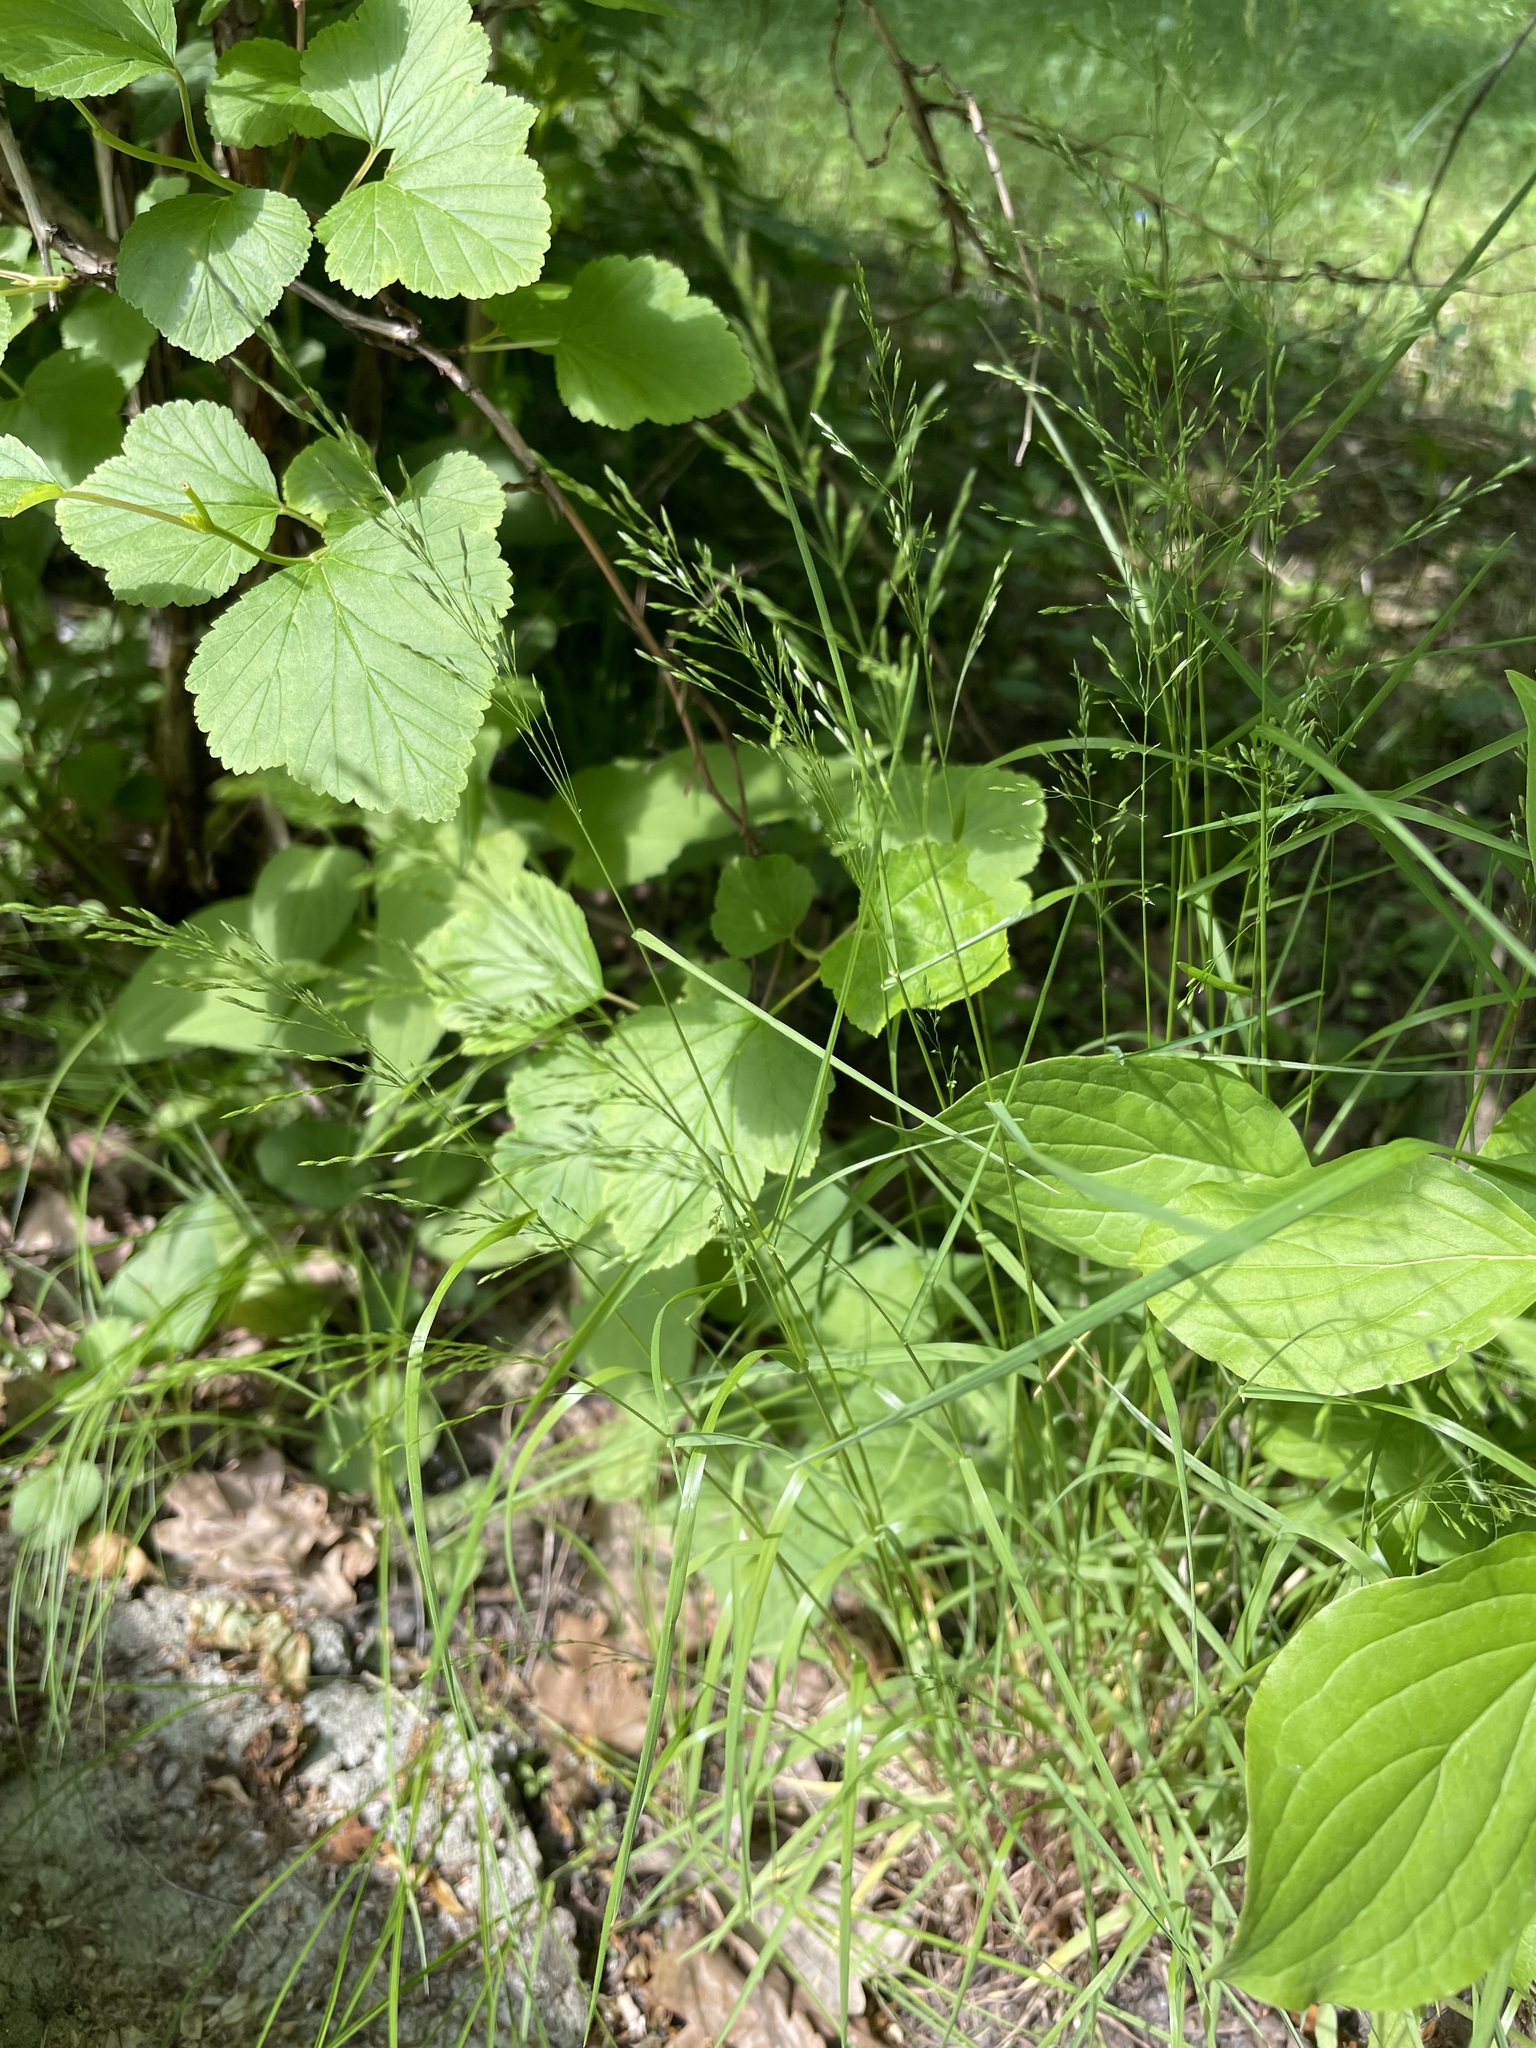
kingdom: Plantae
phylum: Tracheophyta
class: Liliopsida
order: Poales
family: Poaceae
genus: Poa
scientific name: Poa nemoralis
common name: Wood bluegrass
